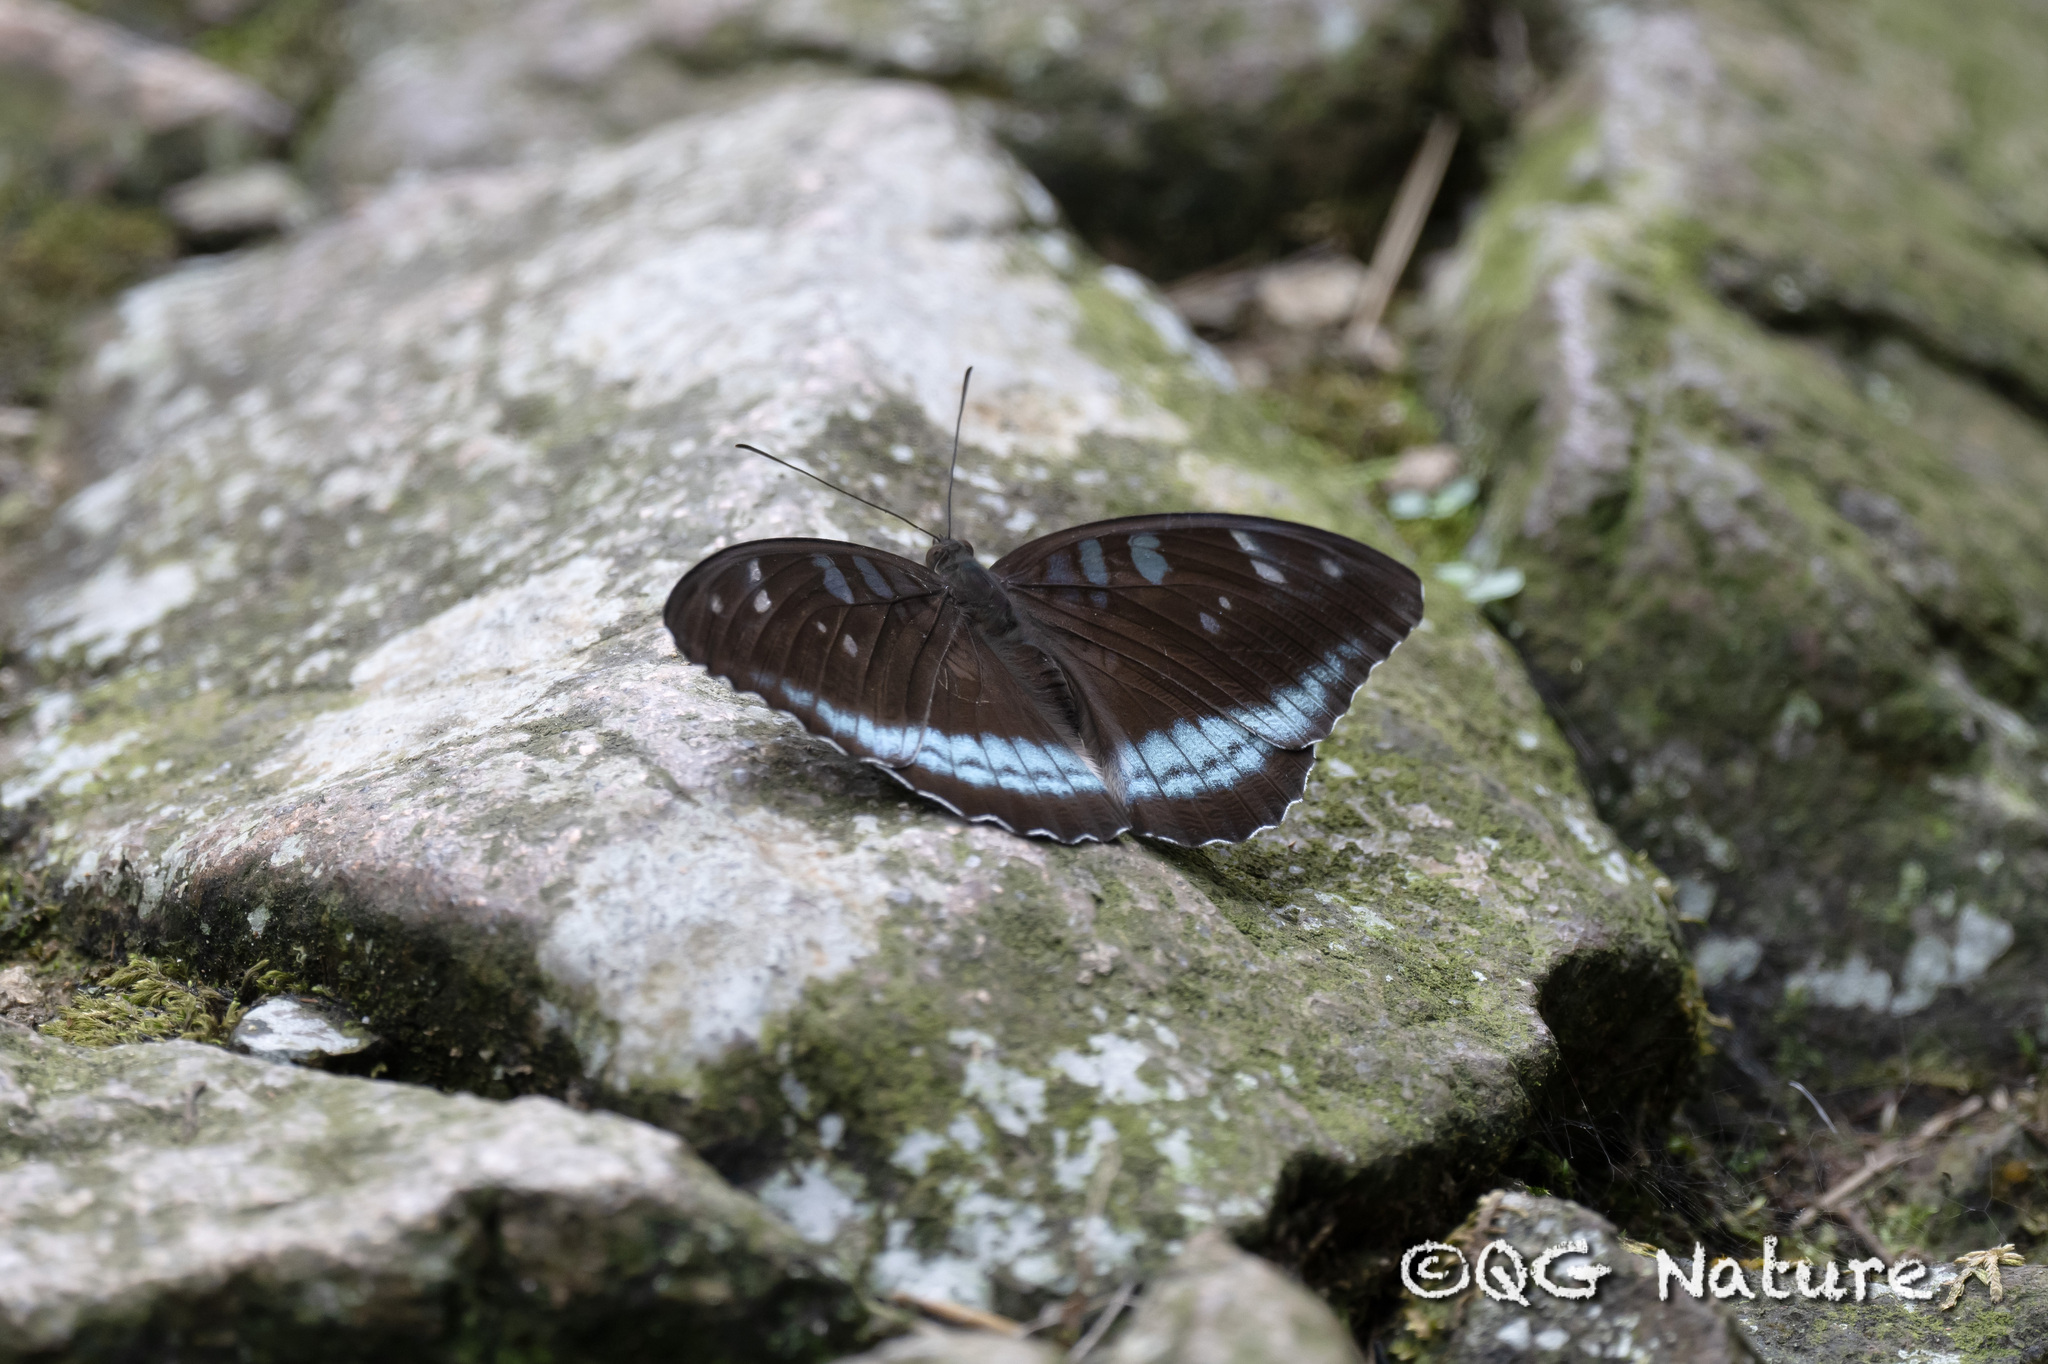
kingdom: Animalia
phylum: Arthropoda
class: Insecta
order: Lepidoptera
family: Nymphalidae
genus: Tanaecia
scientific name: Tanaecia
